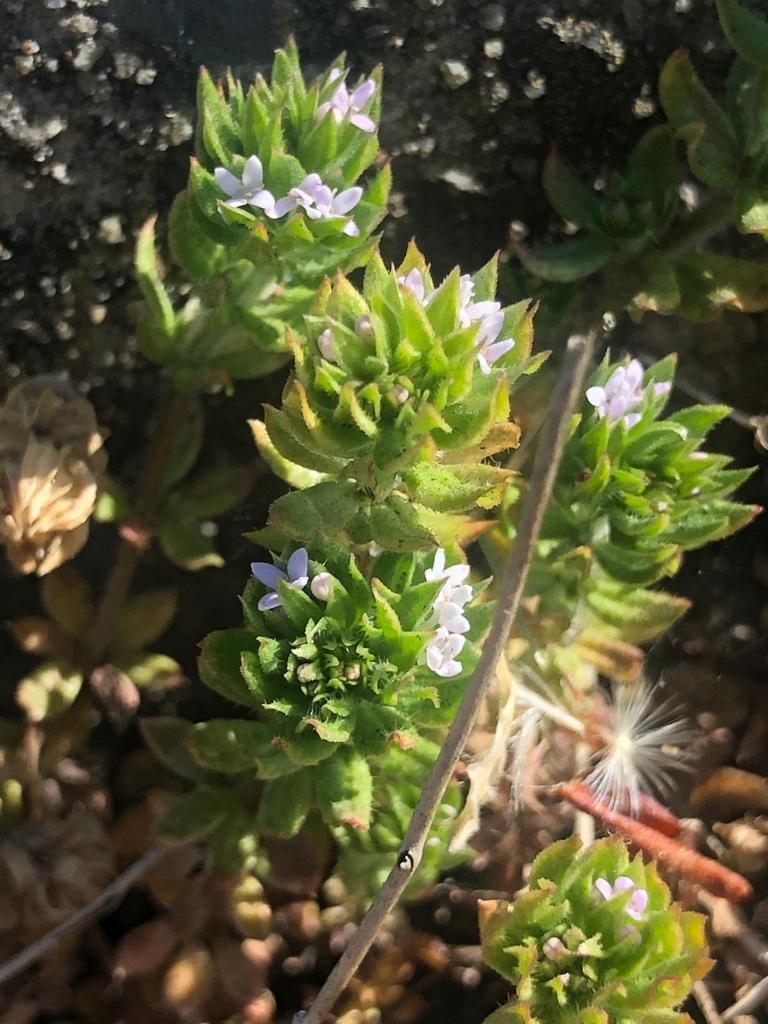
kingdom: Plantae
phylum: Tracheophyta
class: Magnoliopsida
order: Gentianales
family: Rubiaceae
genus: Sherardia
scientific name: Sherardia arvensis
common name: Field madder
